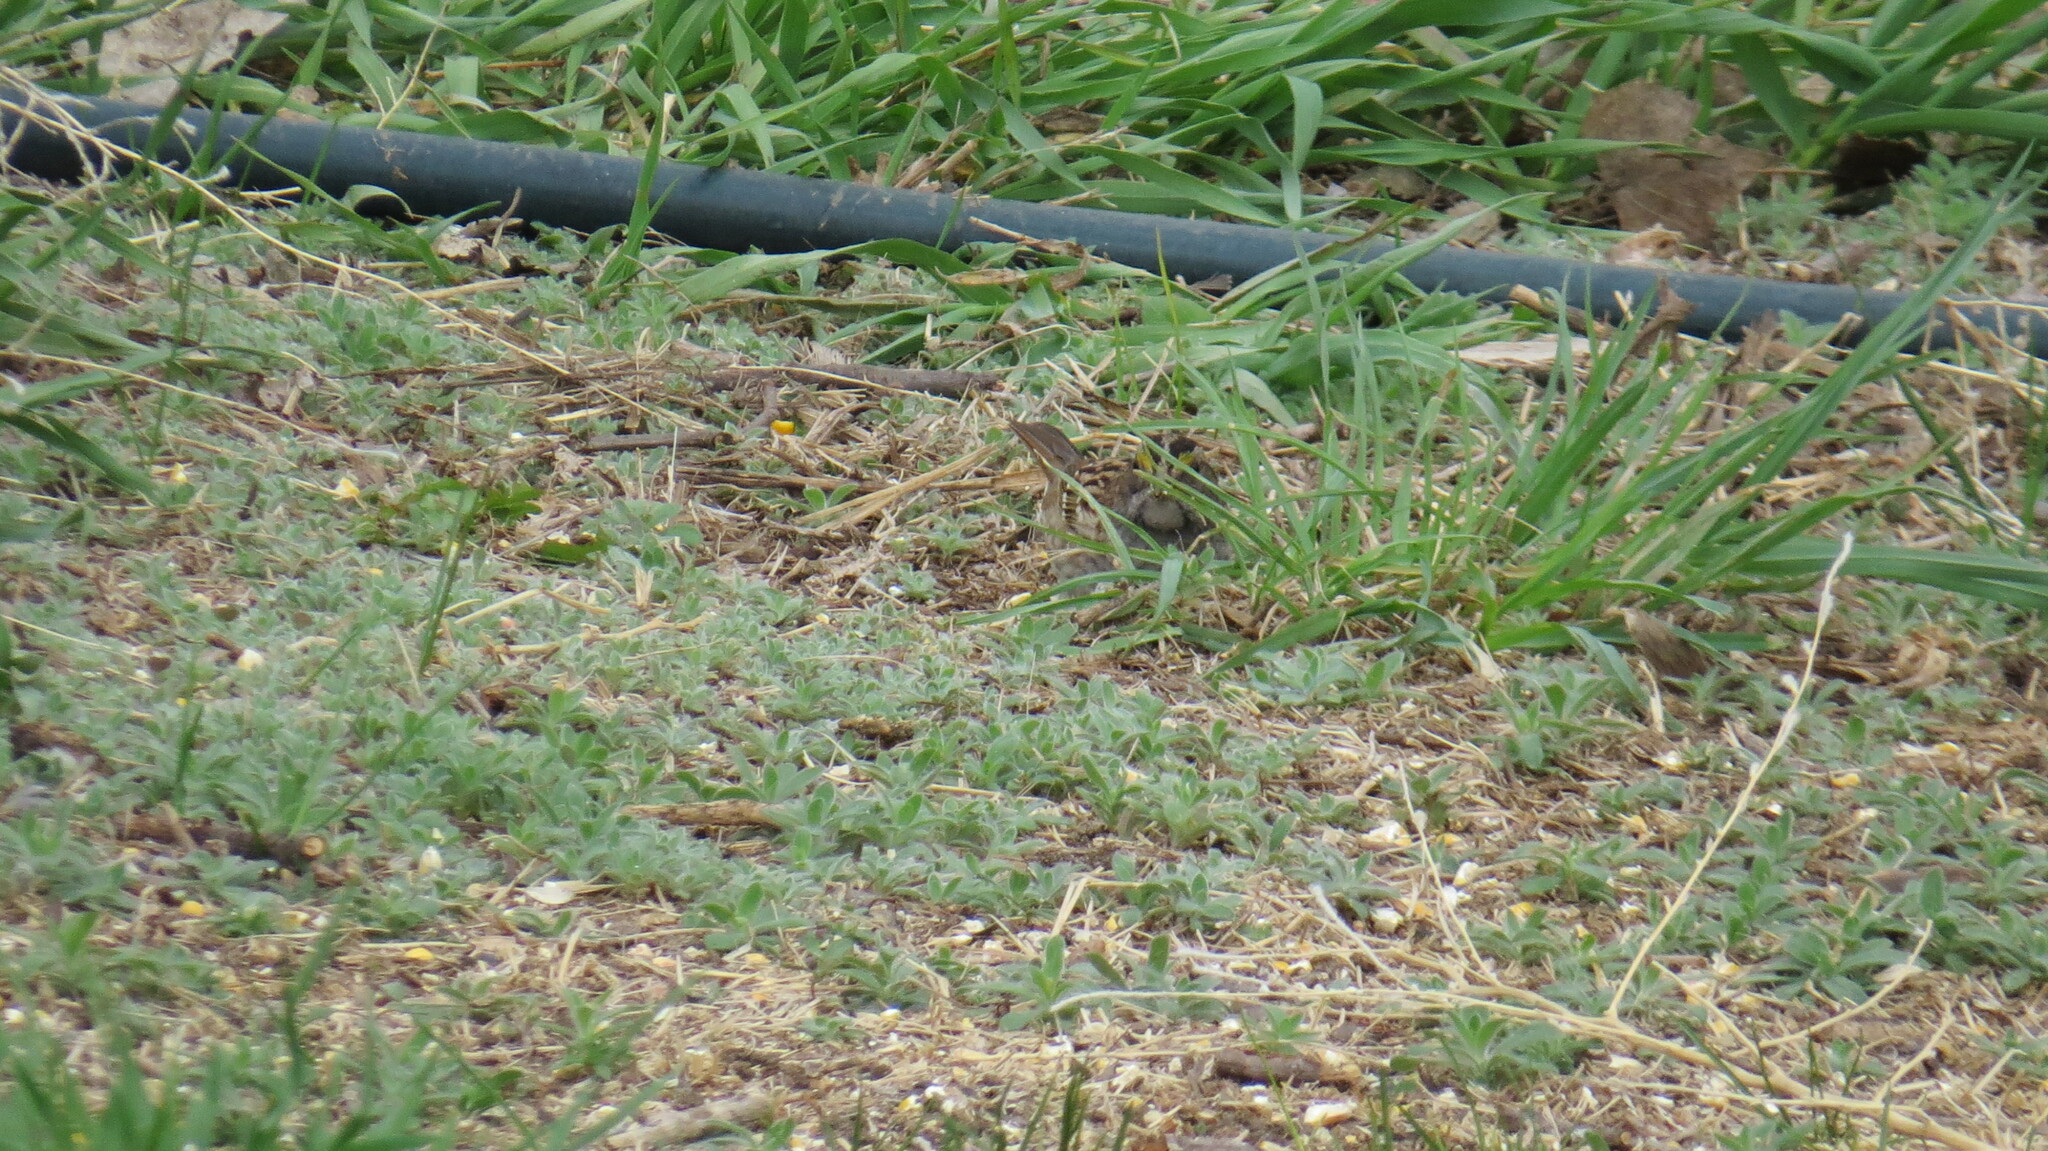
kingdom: Animalia
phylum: Chordata
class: Aves
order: Passeriformes
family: Passerellidae
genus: Zonotrichia
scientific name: Zonotrichia albicollis
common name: White-throated sparrow
